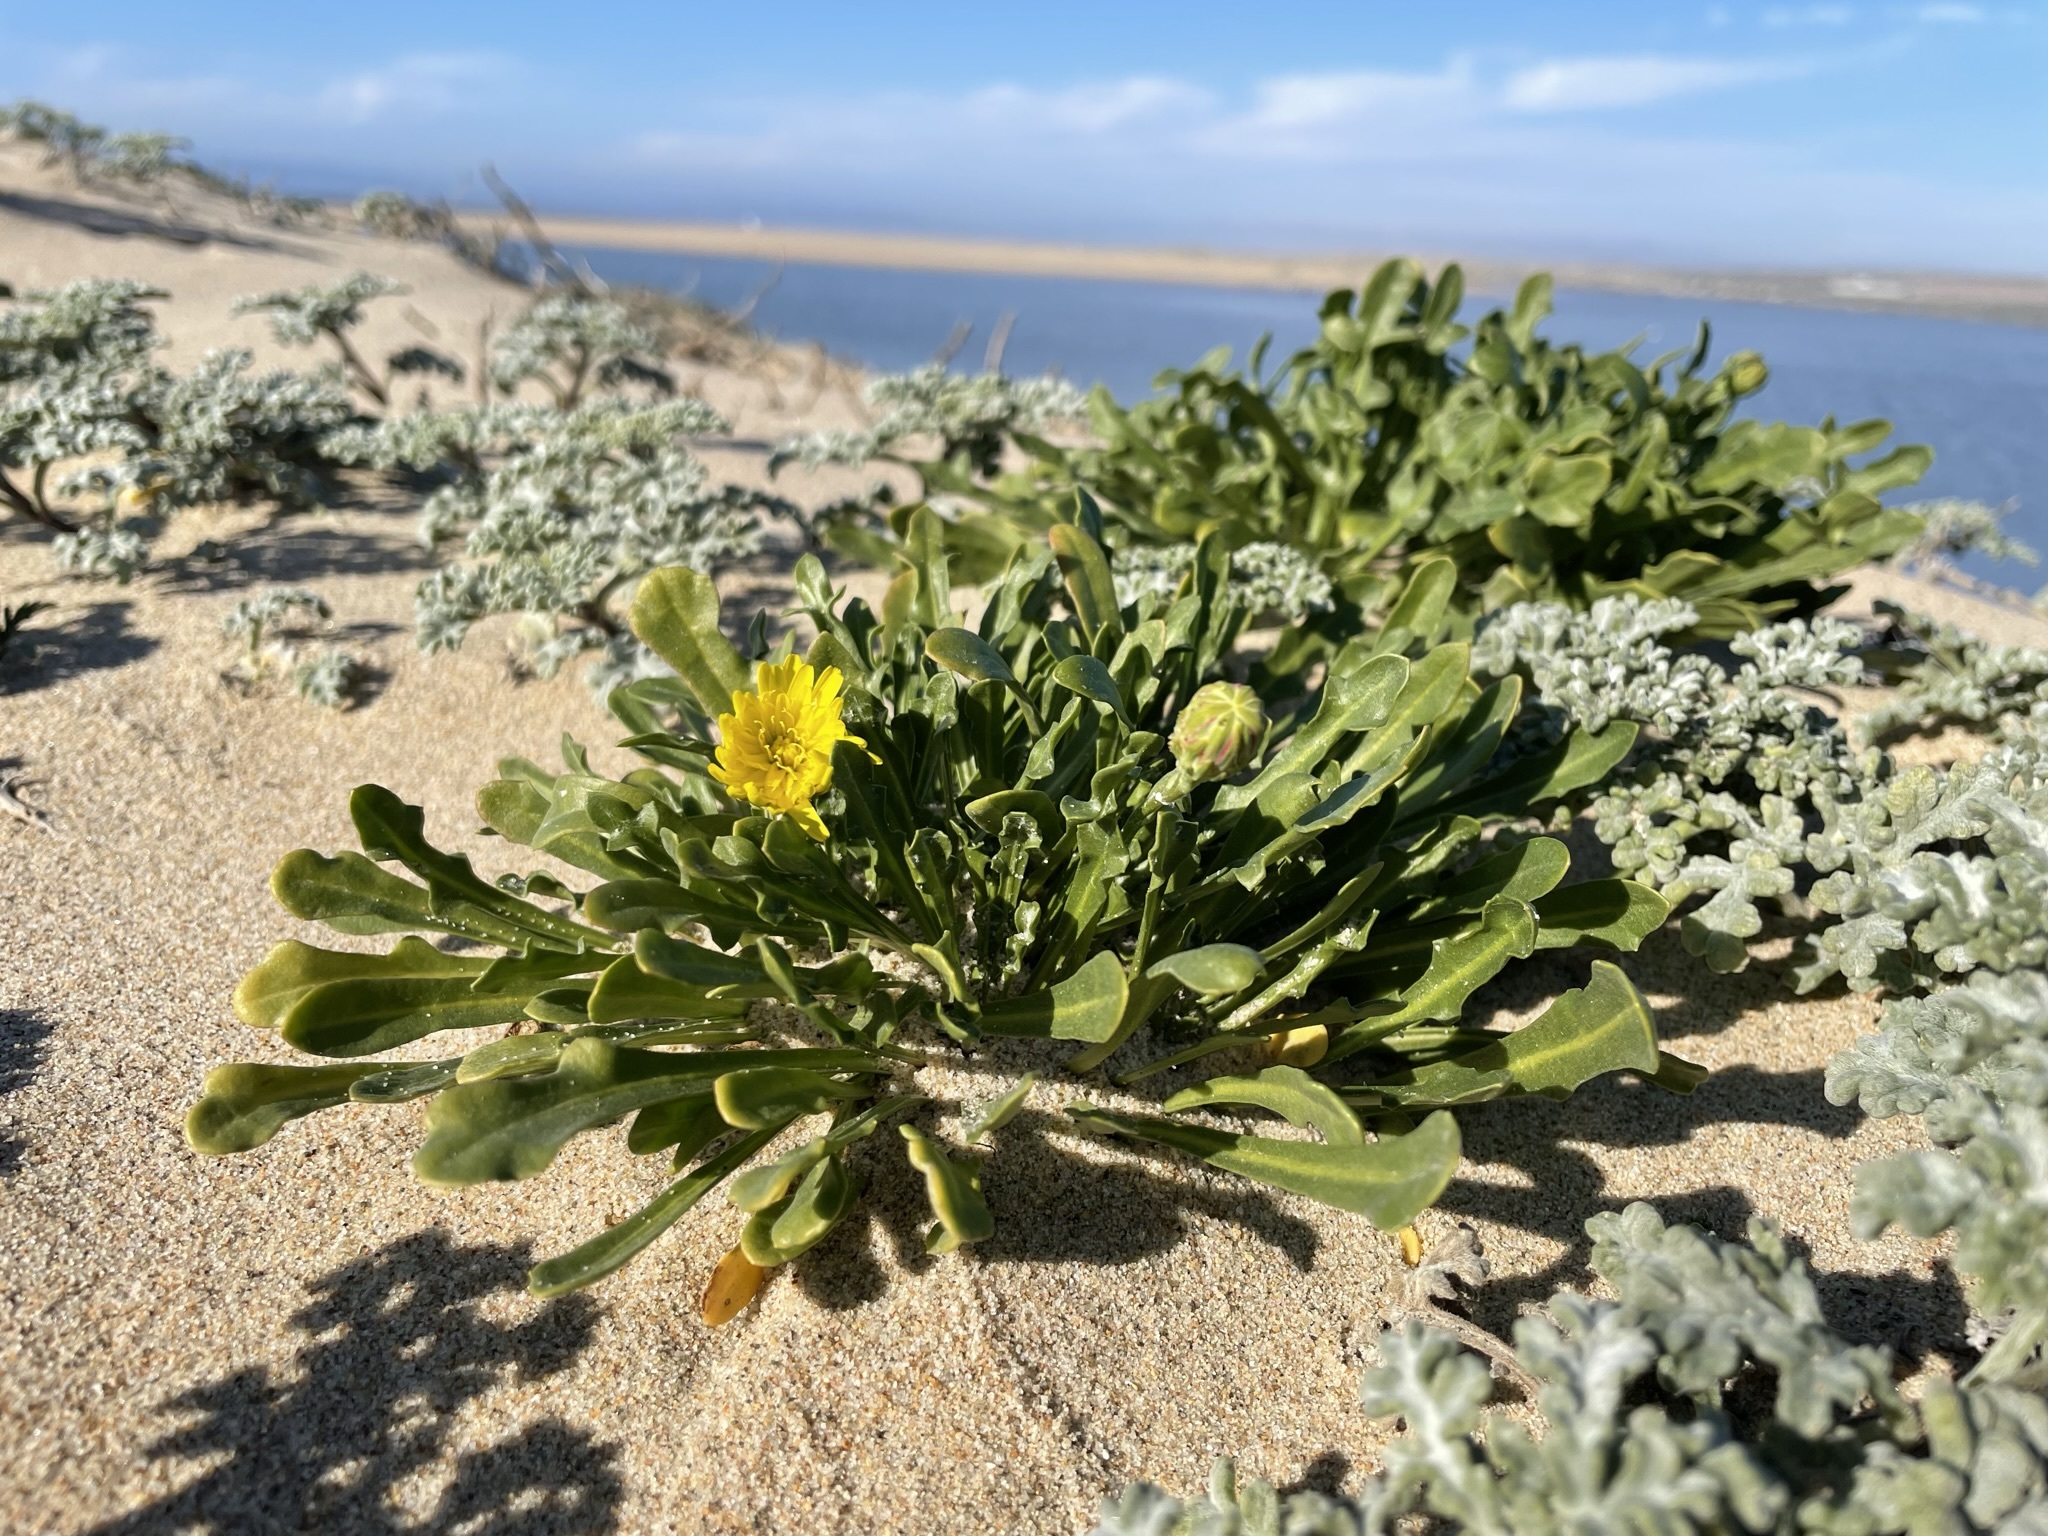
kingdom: Plantae
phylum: Tracheophyta
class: Magnoliopsida
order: Asterales
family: Asteraceae
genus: Malacothrix
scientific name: Malacothrix incana
